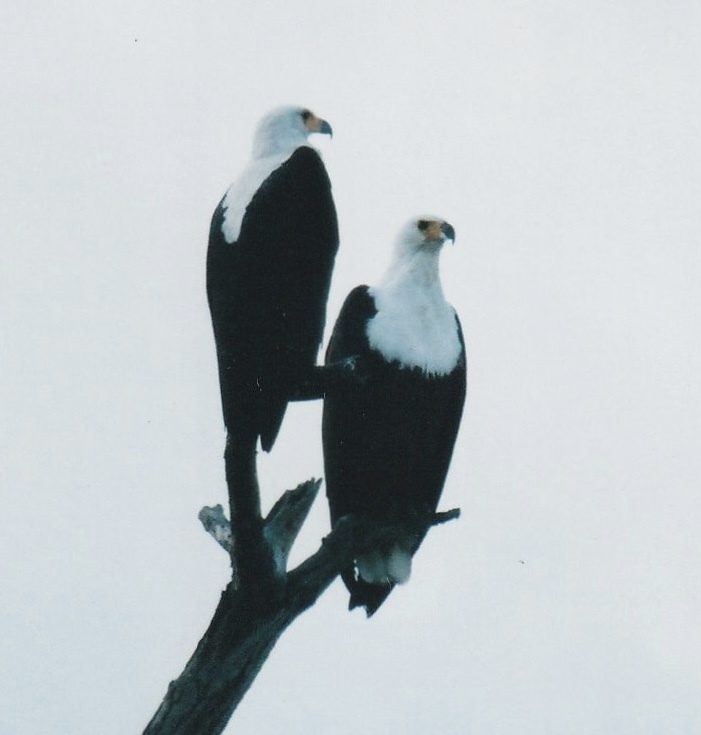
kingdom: Animalia
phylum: Chordata
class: Aves
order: Accipitriformes
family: Accipitridae
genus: Haliaeetus
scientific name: Haliaeetus vocifer
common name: African fish eagle
